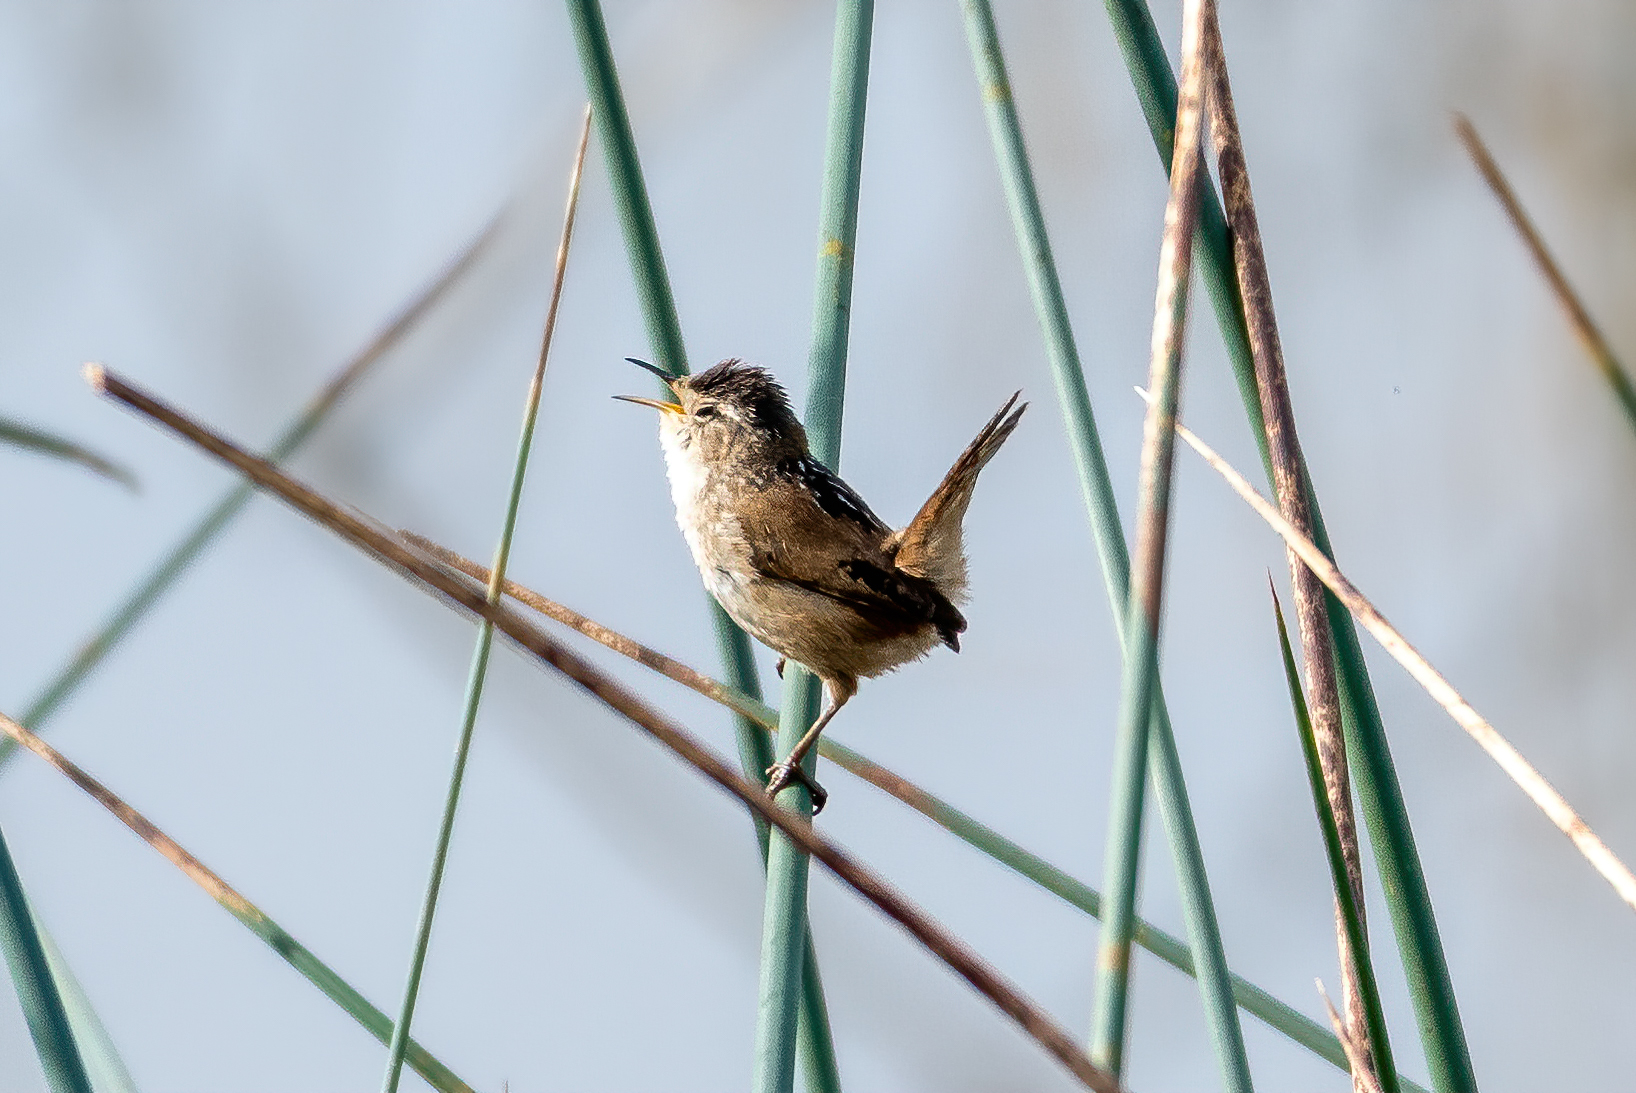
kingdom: Animalia
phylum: Chordata
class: Aves
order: Passeriformes
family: Troglodytidae
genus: Cistothorus
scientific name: Cistothorus palustris
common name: Marsh wren
